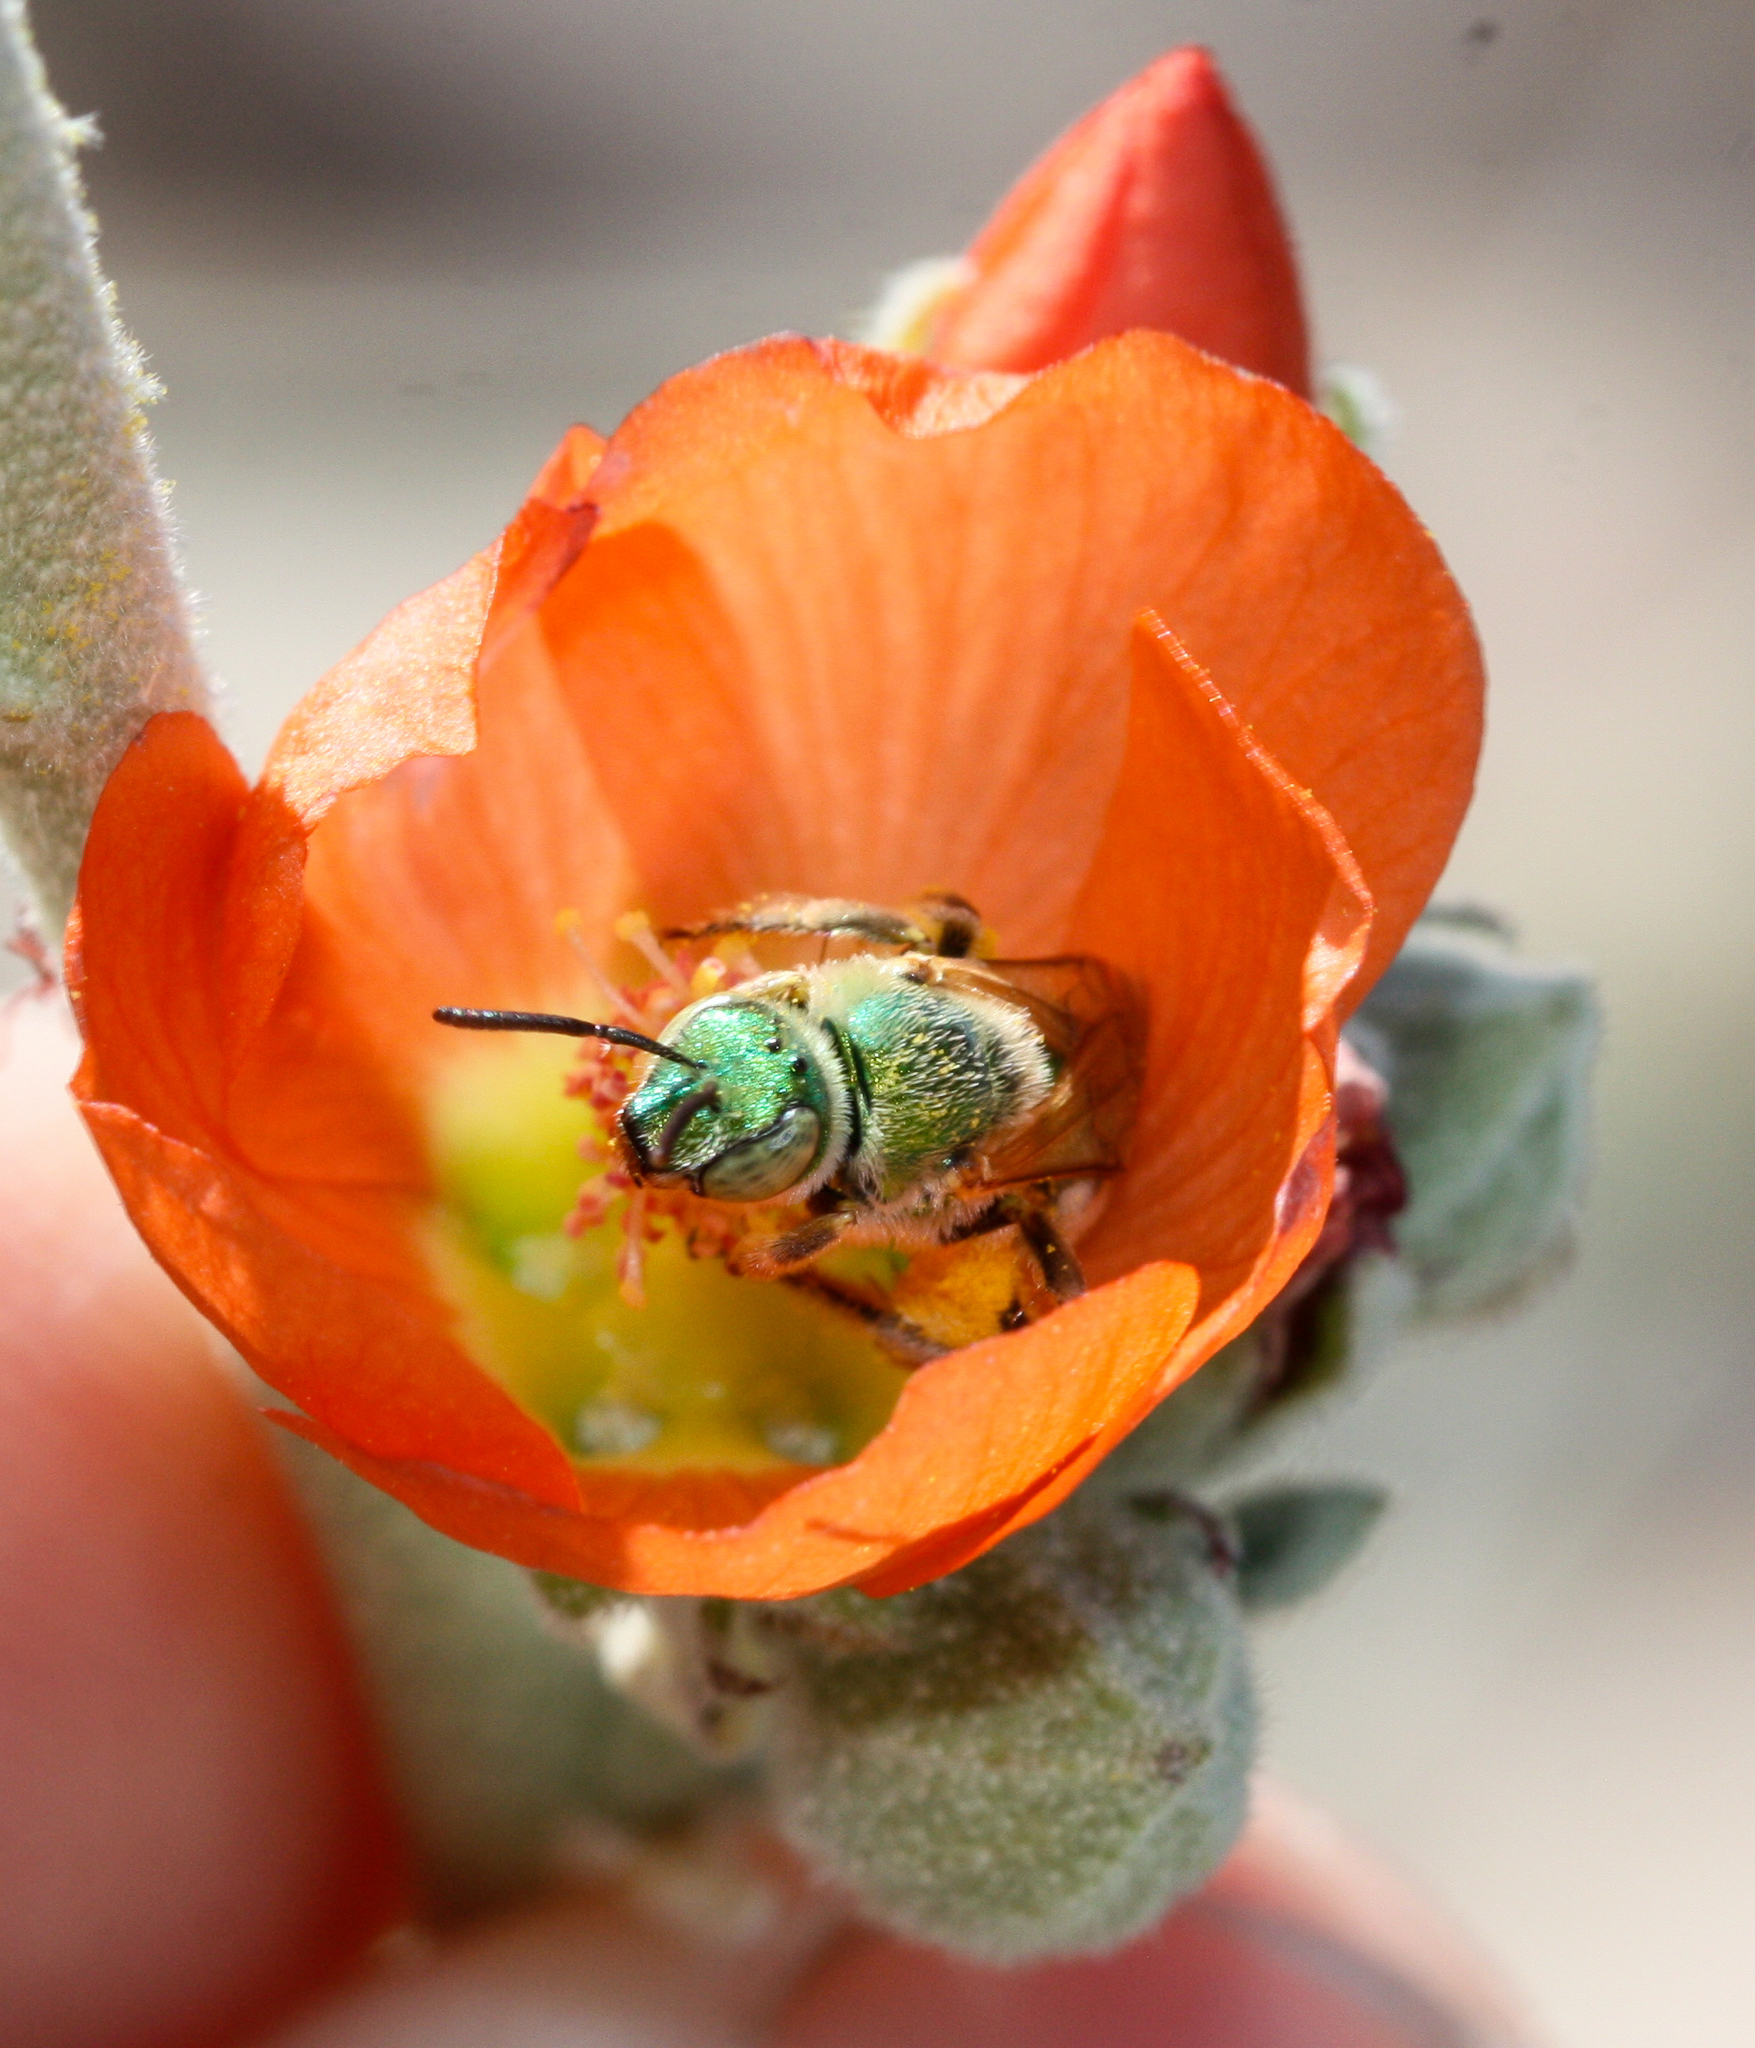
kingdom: Animalia
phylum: Arthropoda
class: Insecta
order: Hymenoptera
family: Halictidae
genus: Agapostemon
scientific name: Agapostemon
